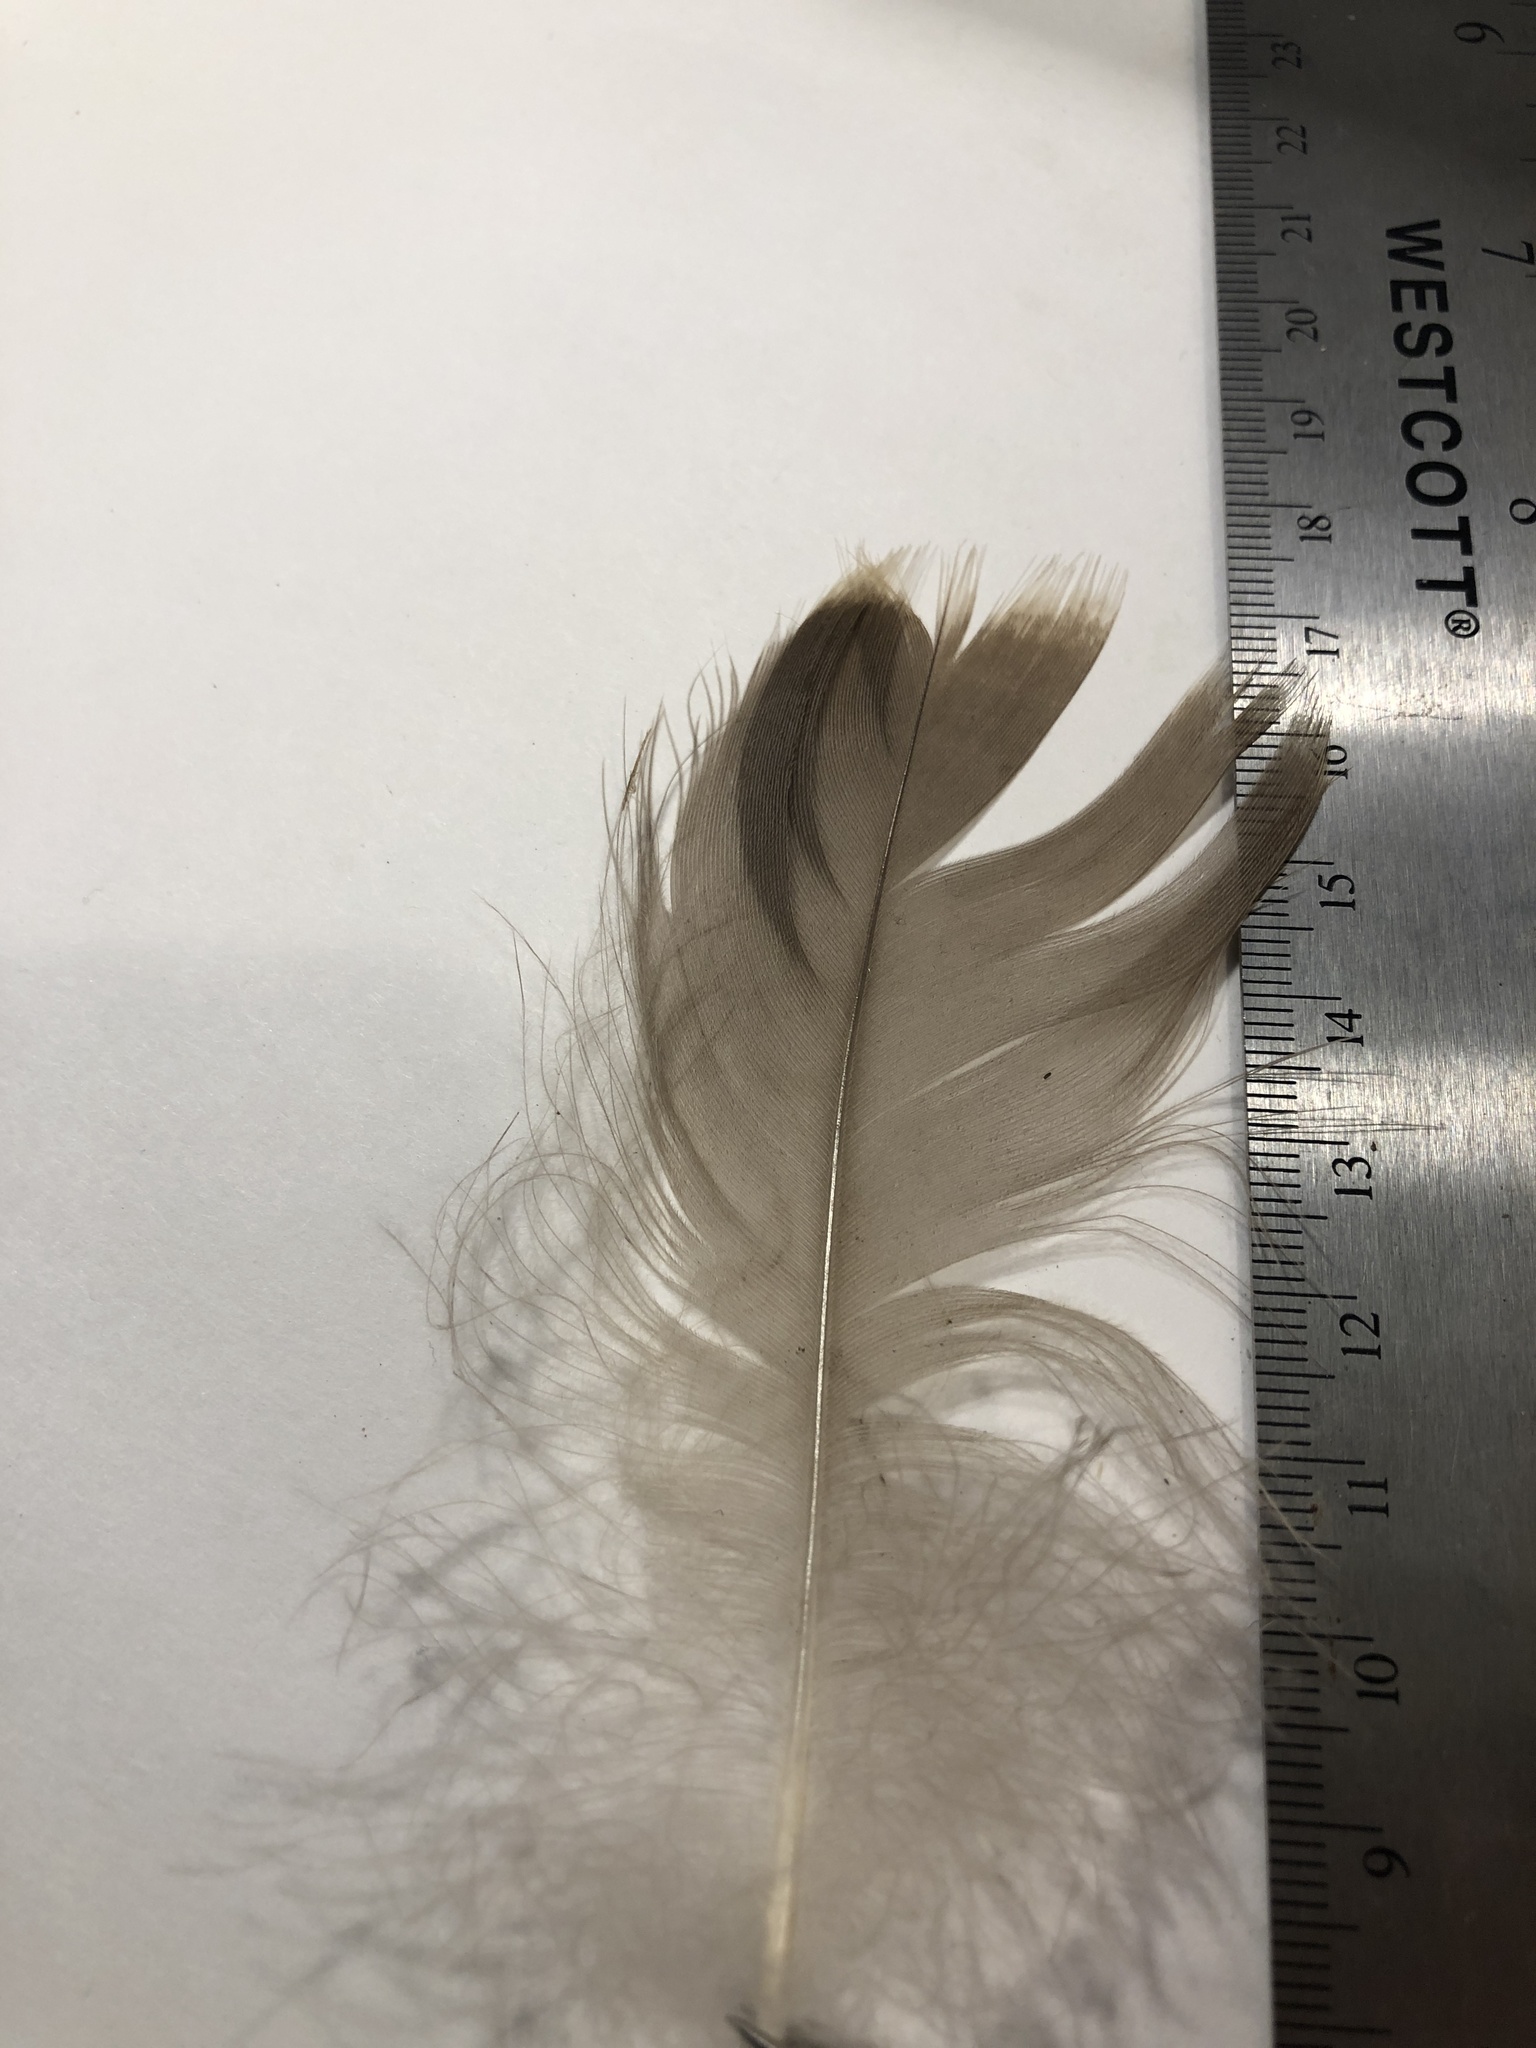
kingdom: Animalia
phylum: Chordata
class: Aves
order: Anseriformes
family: Anatidae
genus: Branta
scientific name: Branta canadensis
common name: Canada goose
